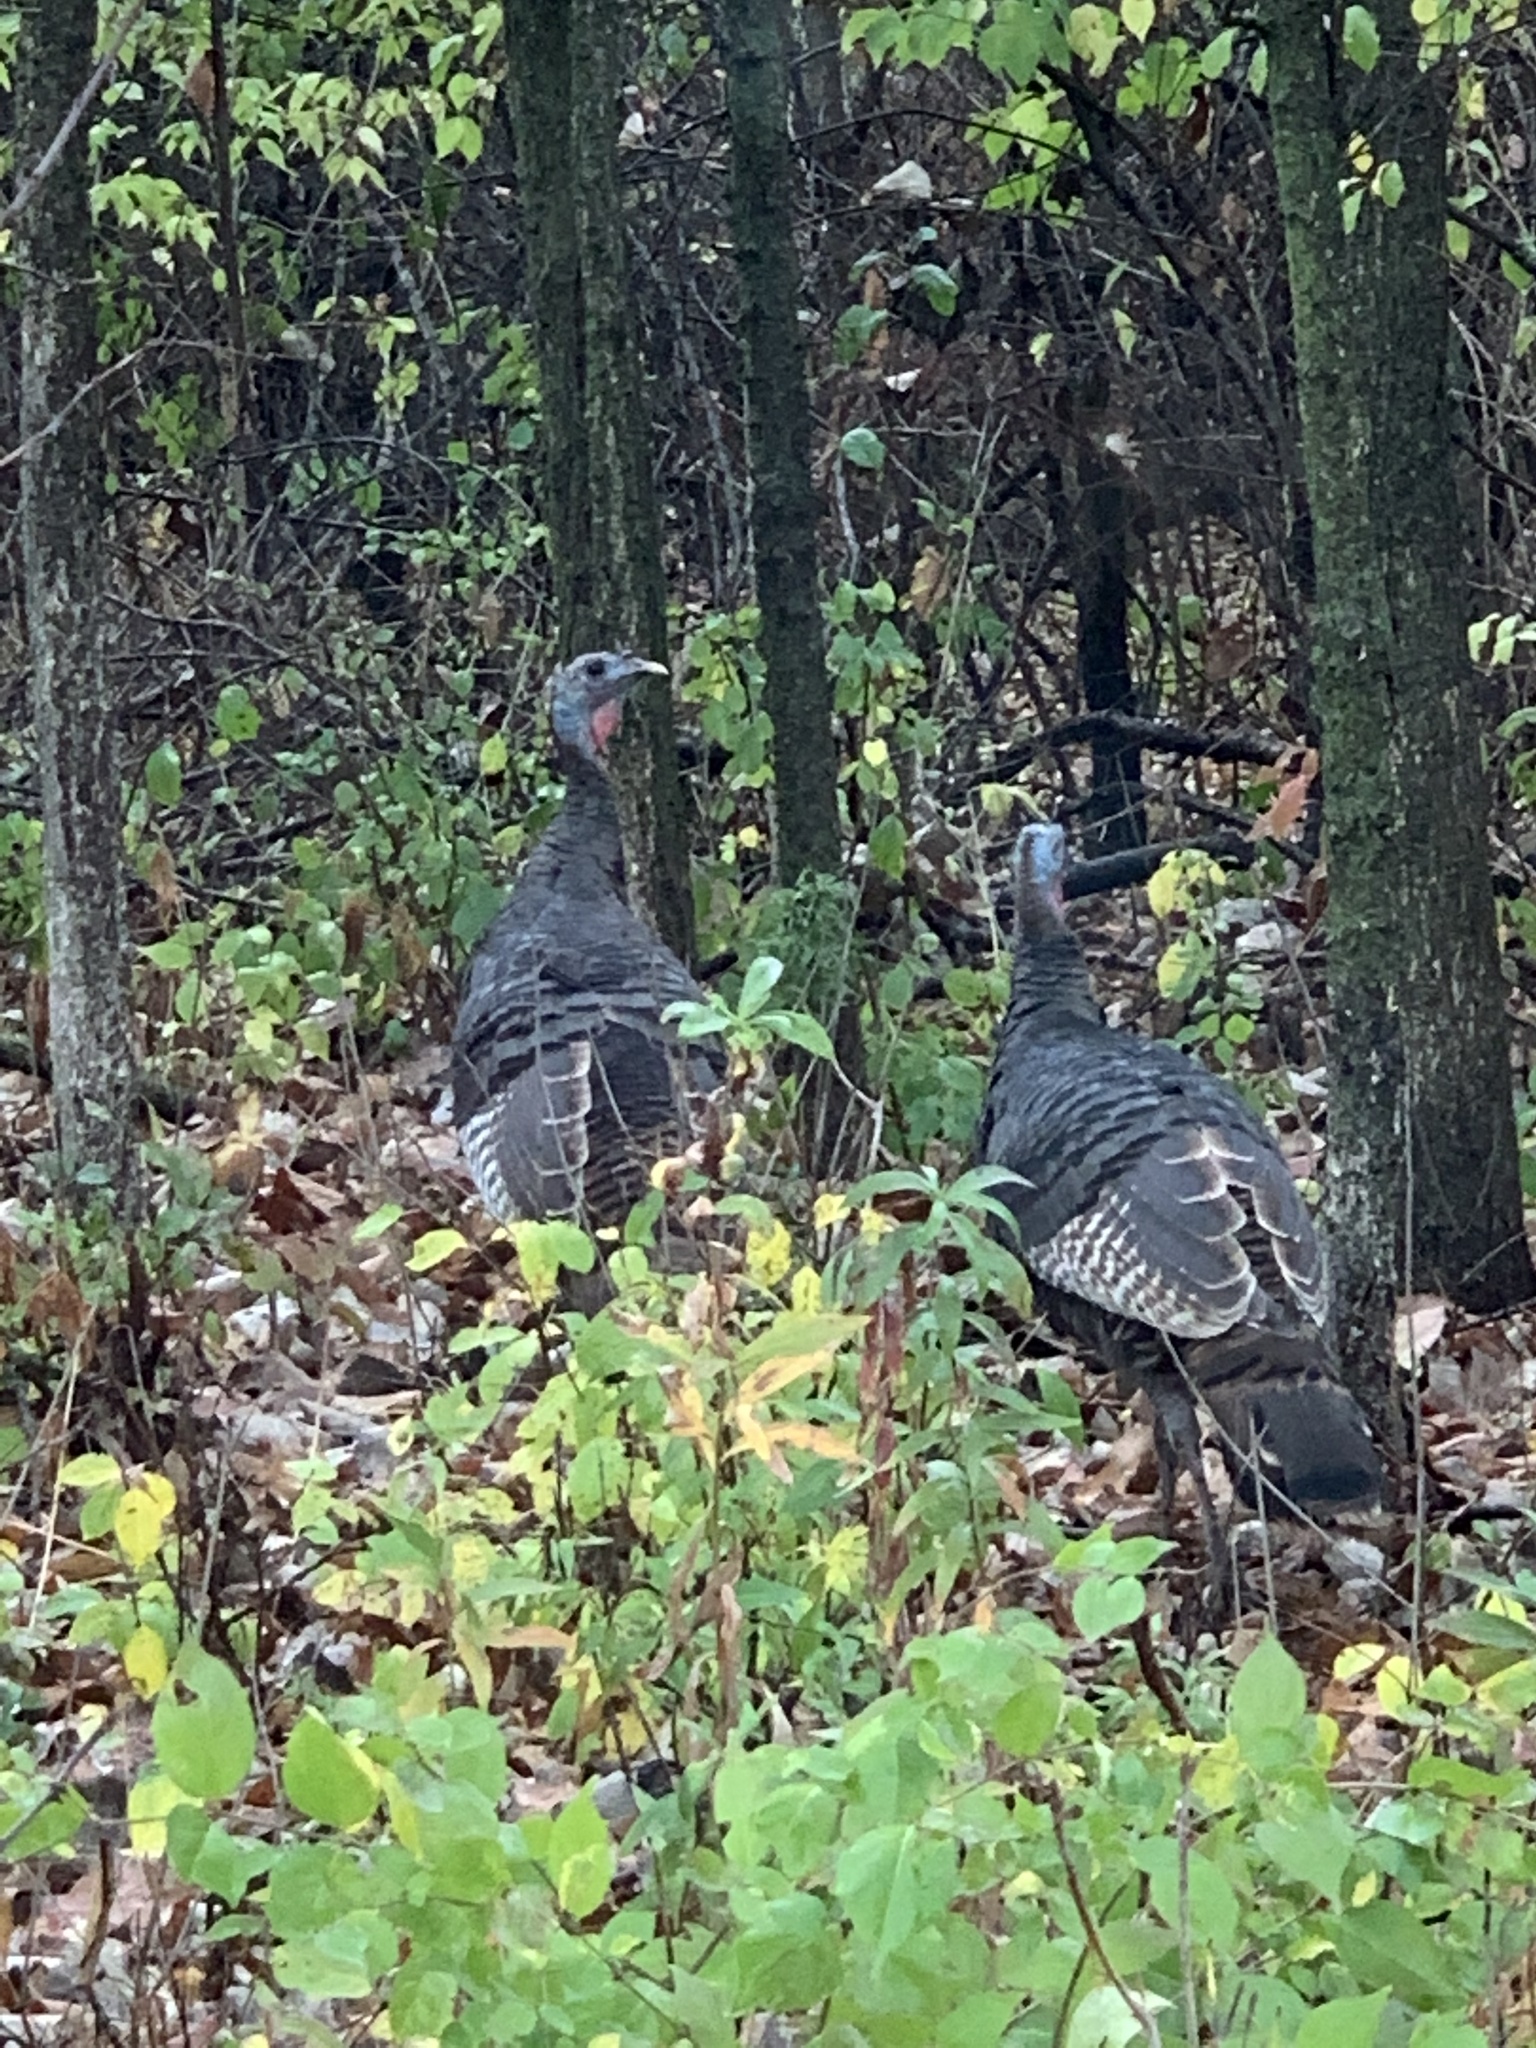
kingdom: Animalia
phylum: Chordata
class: Aves
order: Galliformes
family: Phasianidae
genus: Meleagris
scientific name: Meleagris gallopavo
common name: Wild turkey
